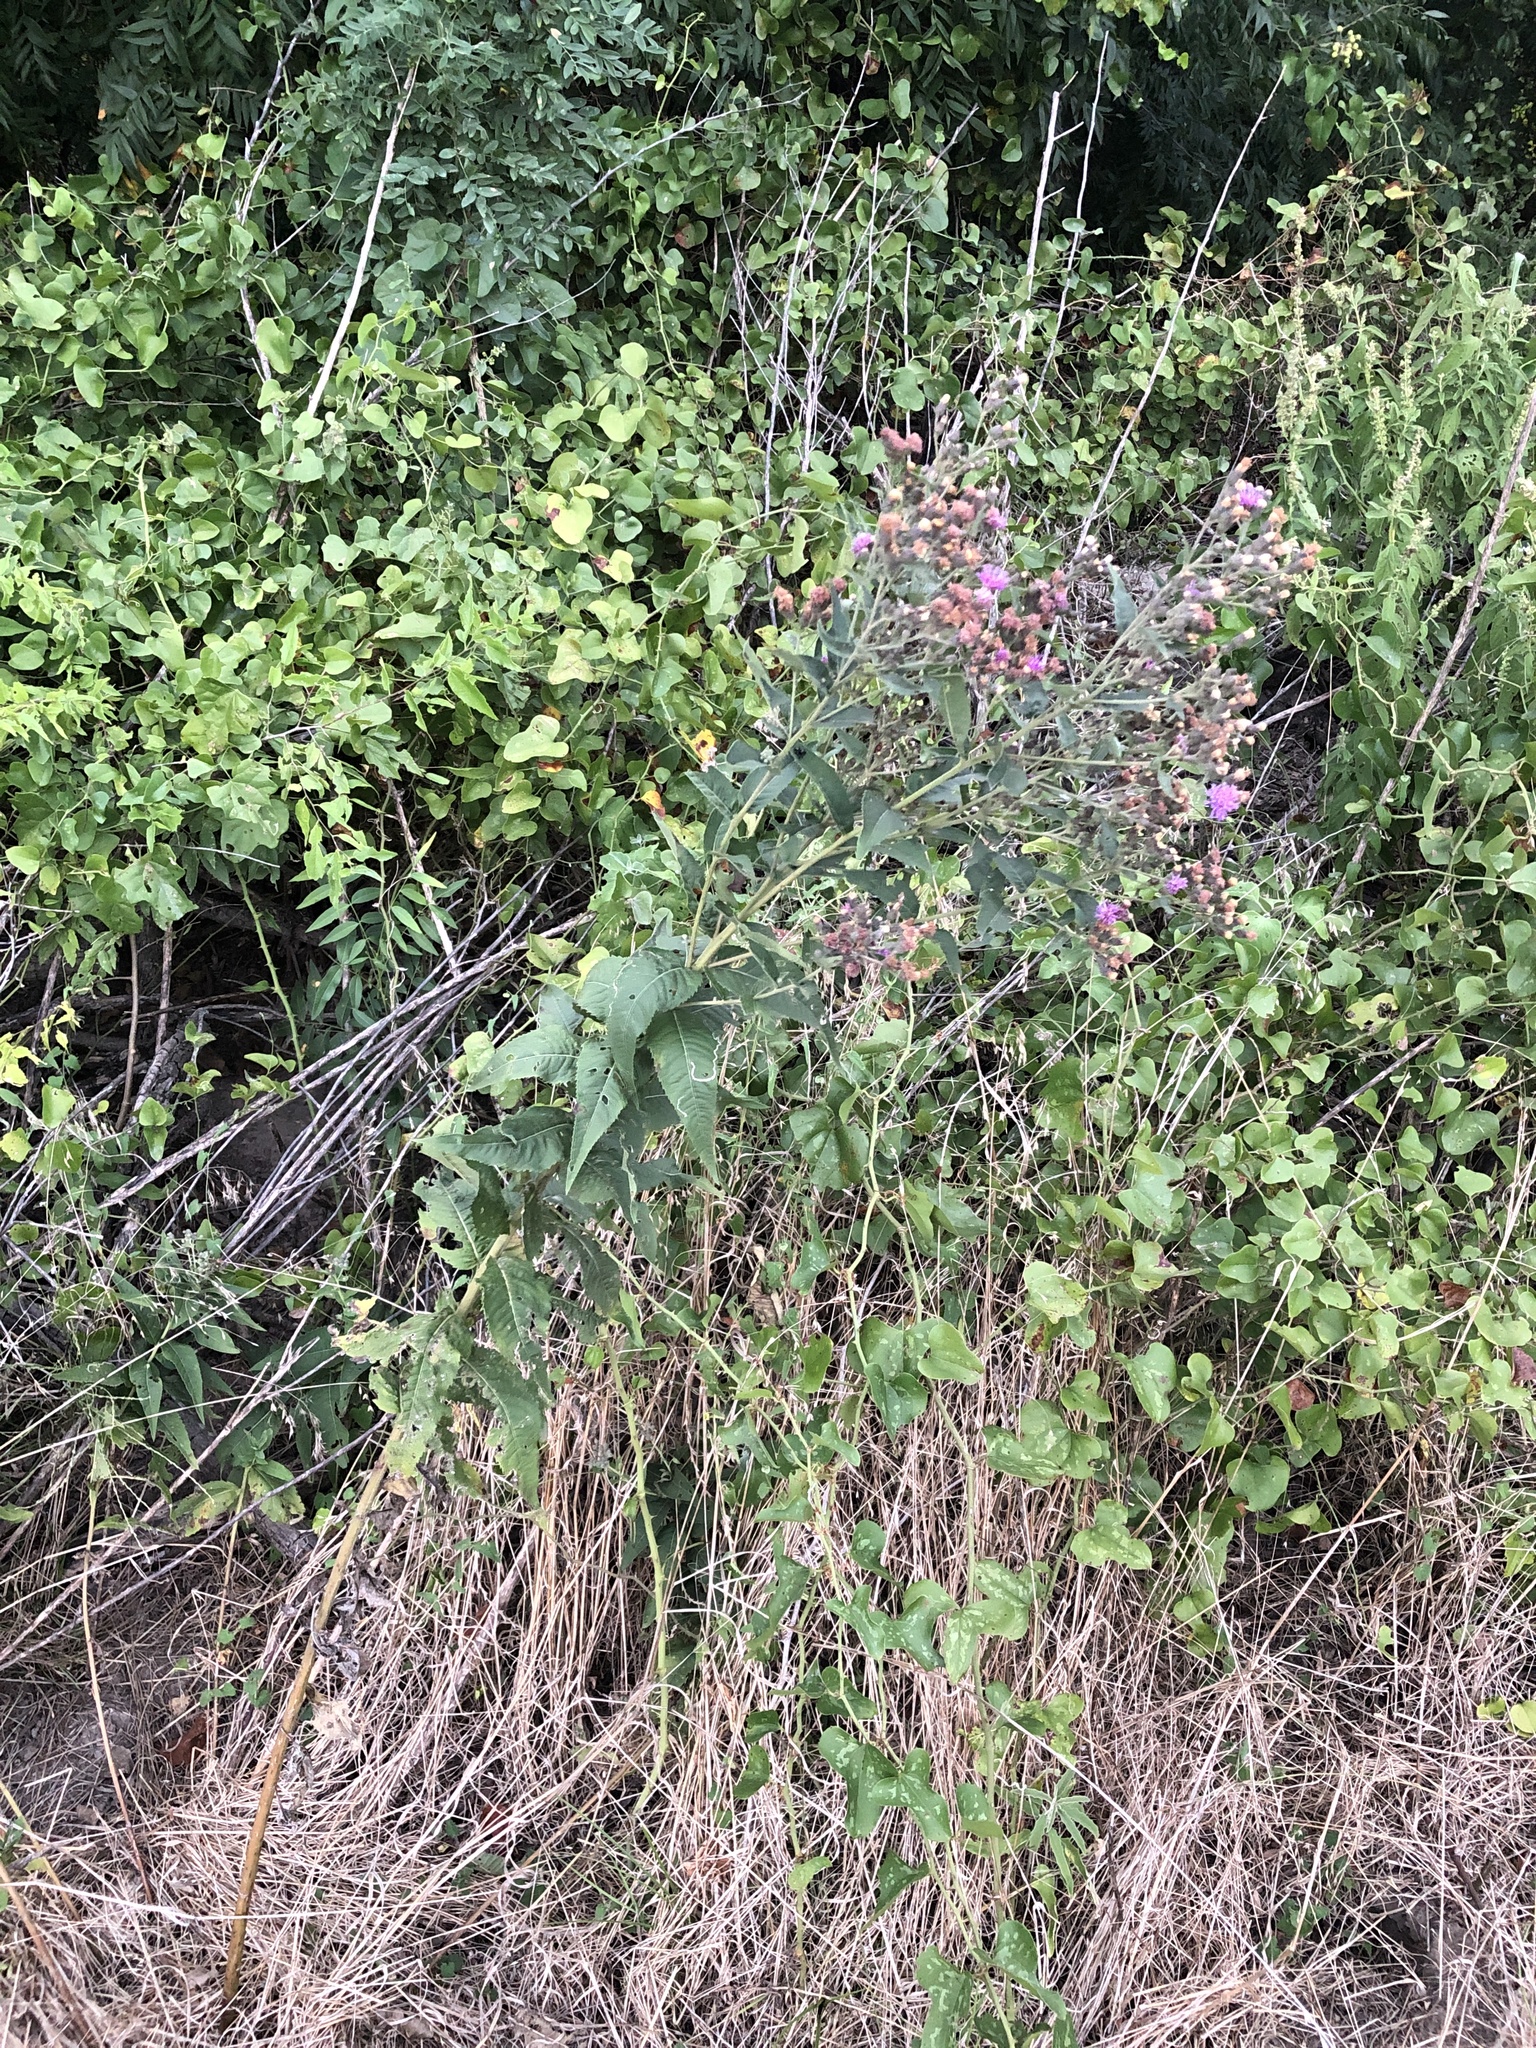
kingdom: Plantae
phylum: Tracheophyta
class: Magnoliopsida
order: Asterales
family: Asteraceae
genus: Vernonia
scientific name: Vernonia baldwinii
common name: Western ironweed
